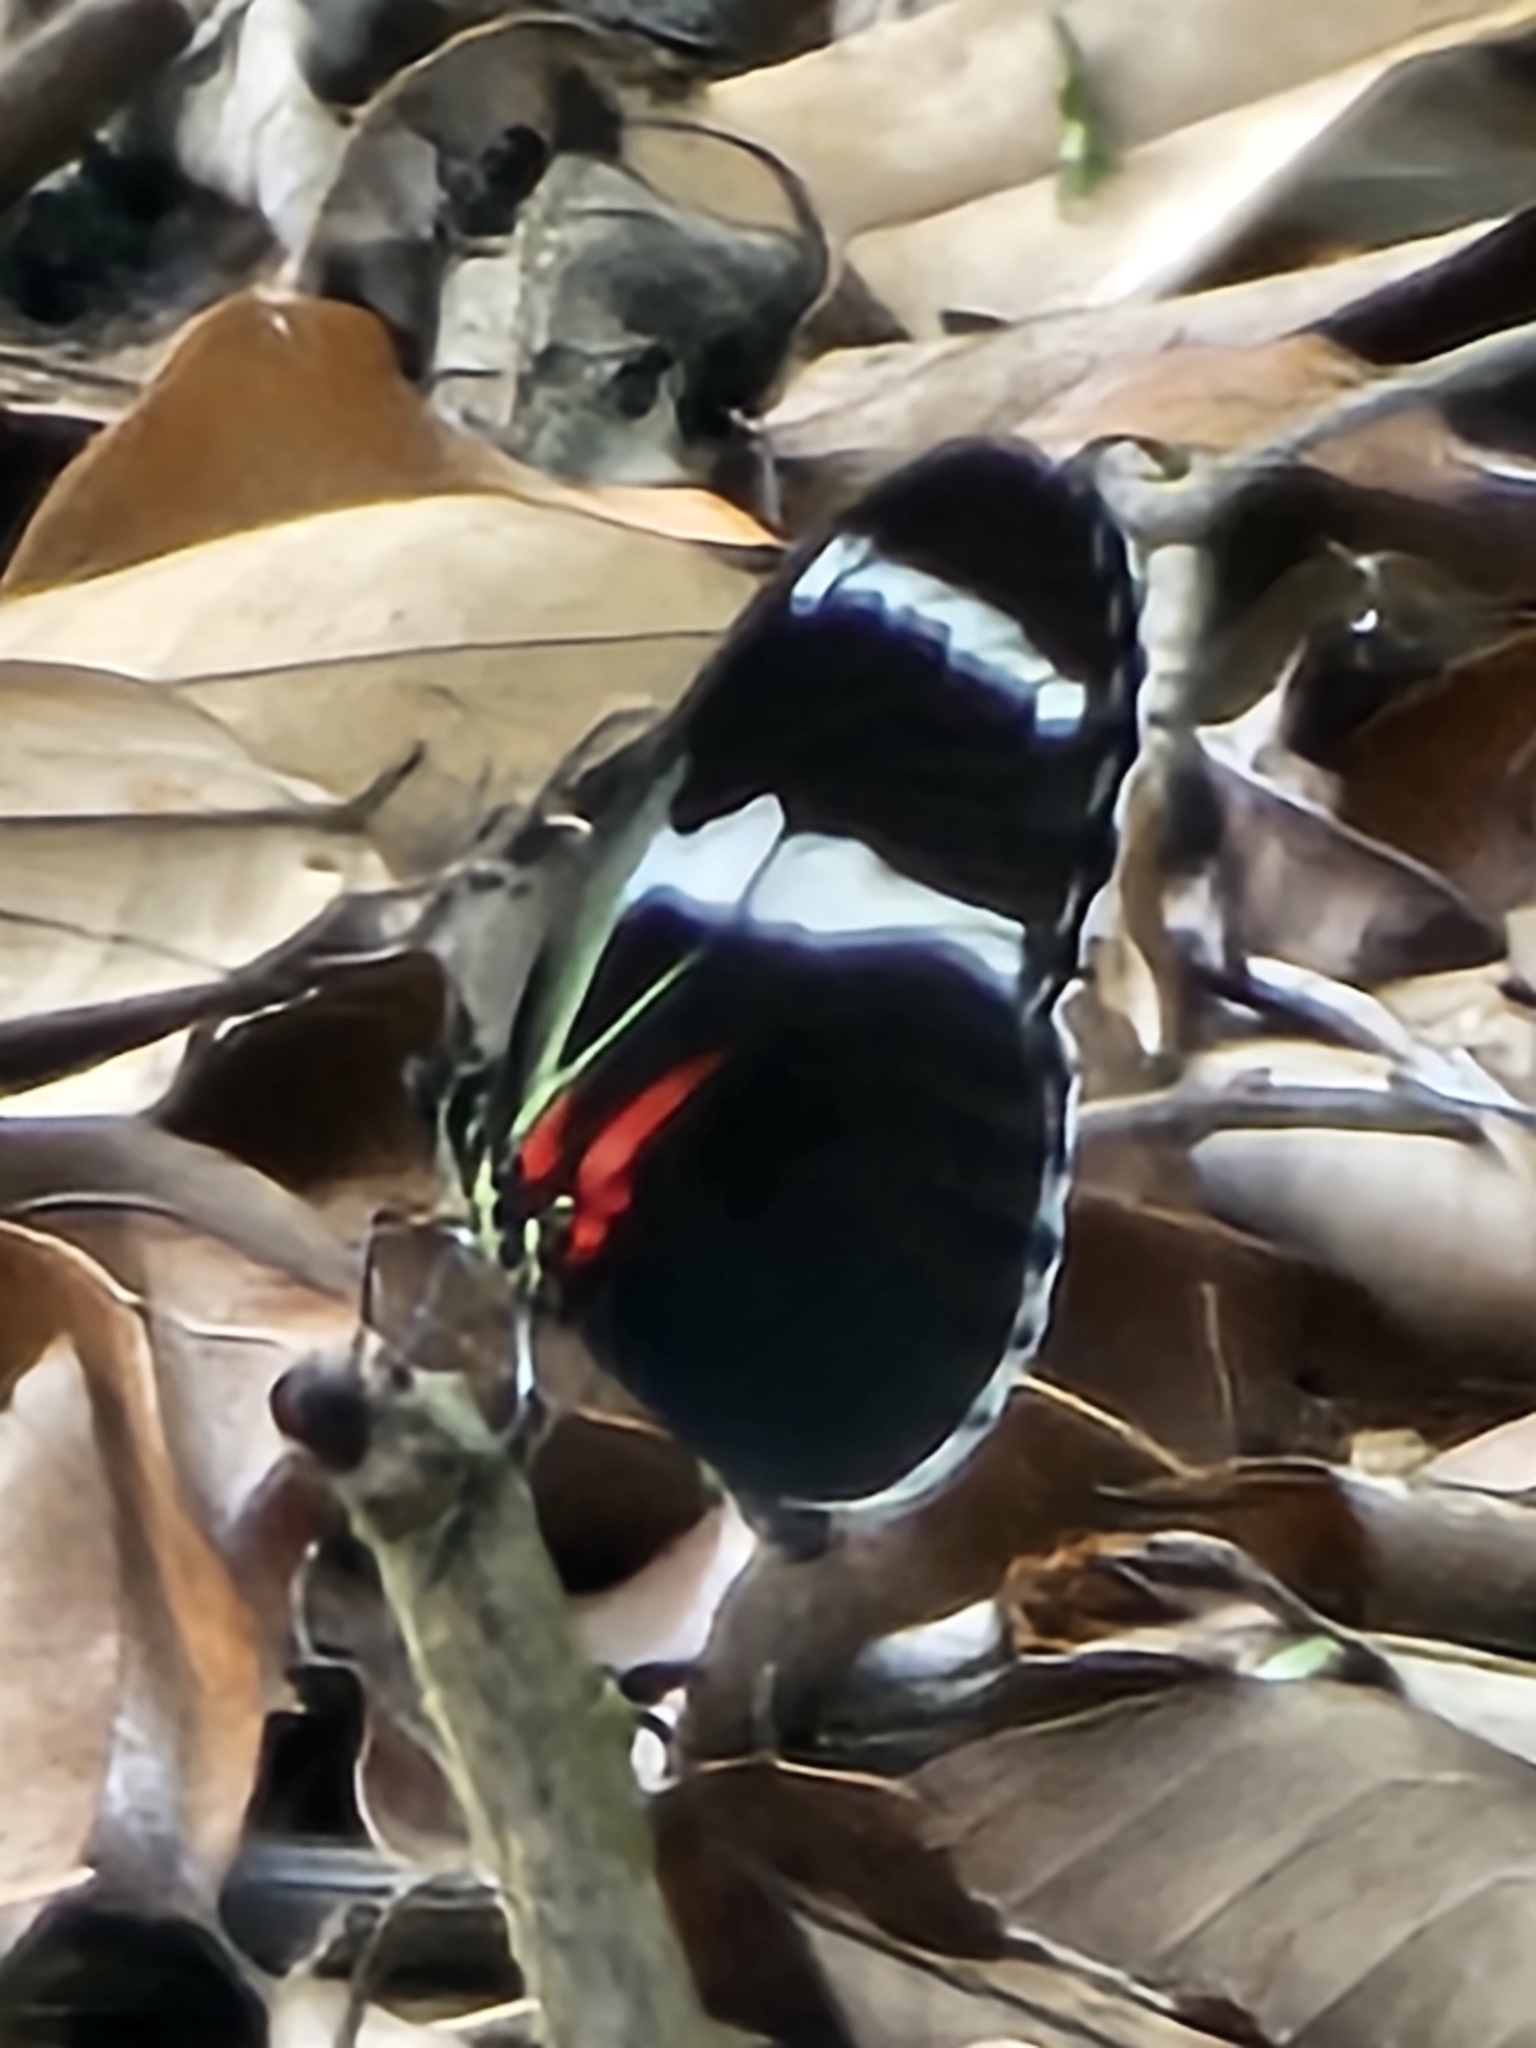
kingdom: Animalia
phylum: Arthropoda
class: Insecta
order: Lepidoptera
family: Nymphalidae
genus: Heliconius
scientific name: Heliconius antiochus
